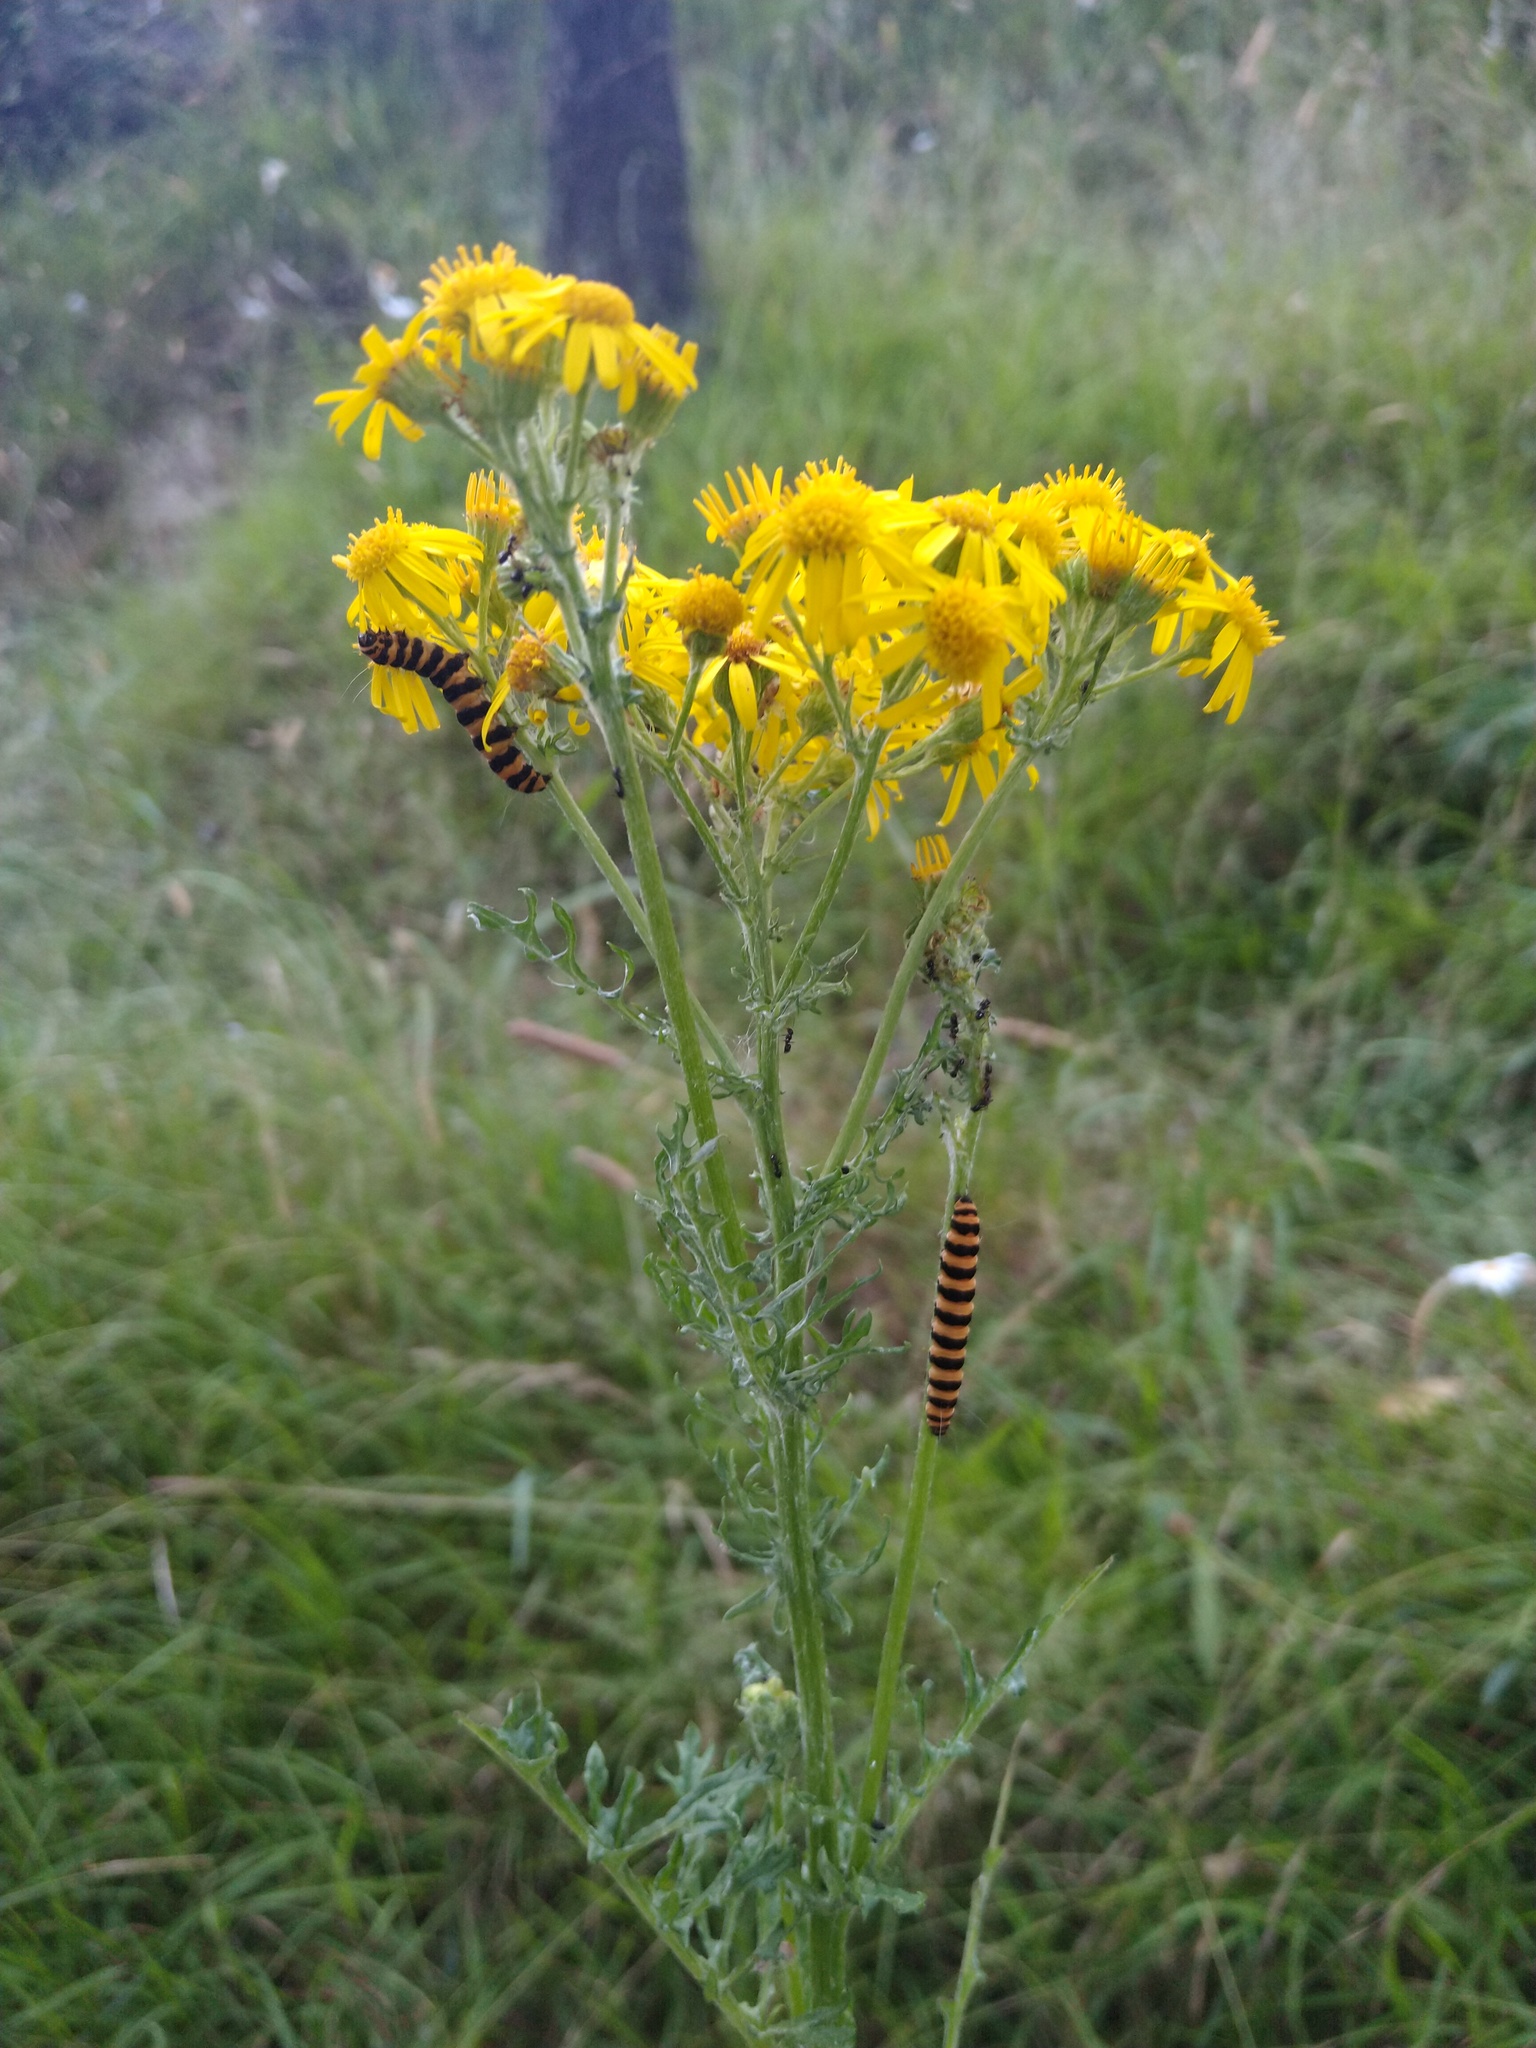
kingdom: Animalia
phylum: Arthropoda
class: Insecta
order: Lepidoptera
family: Erebidae
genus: Tyria
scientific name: Tyria jacobaeae
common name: Cinnabar
